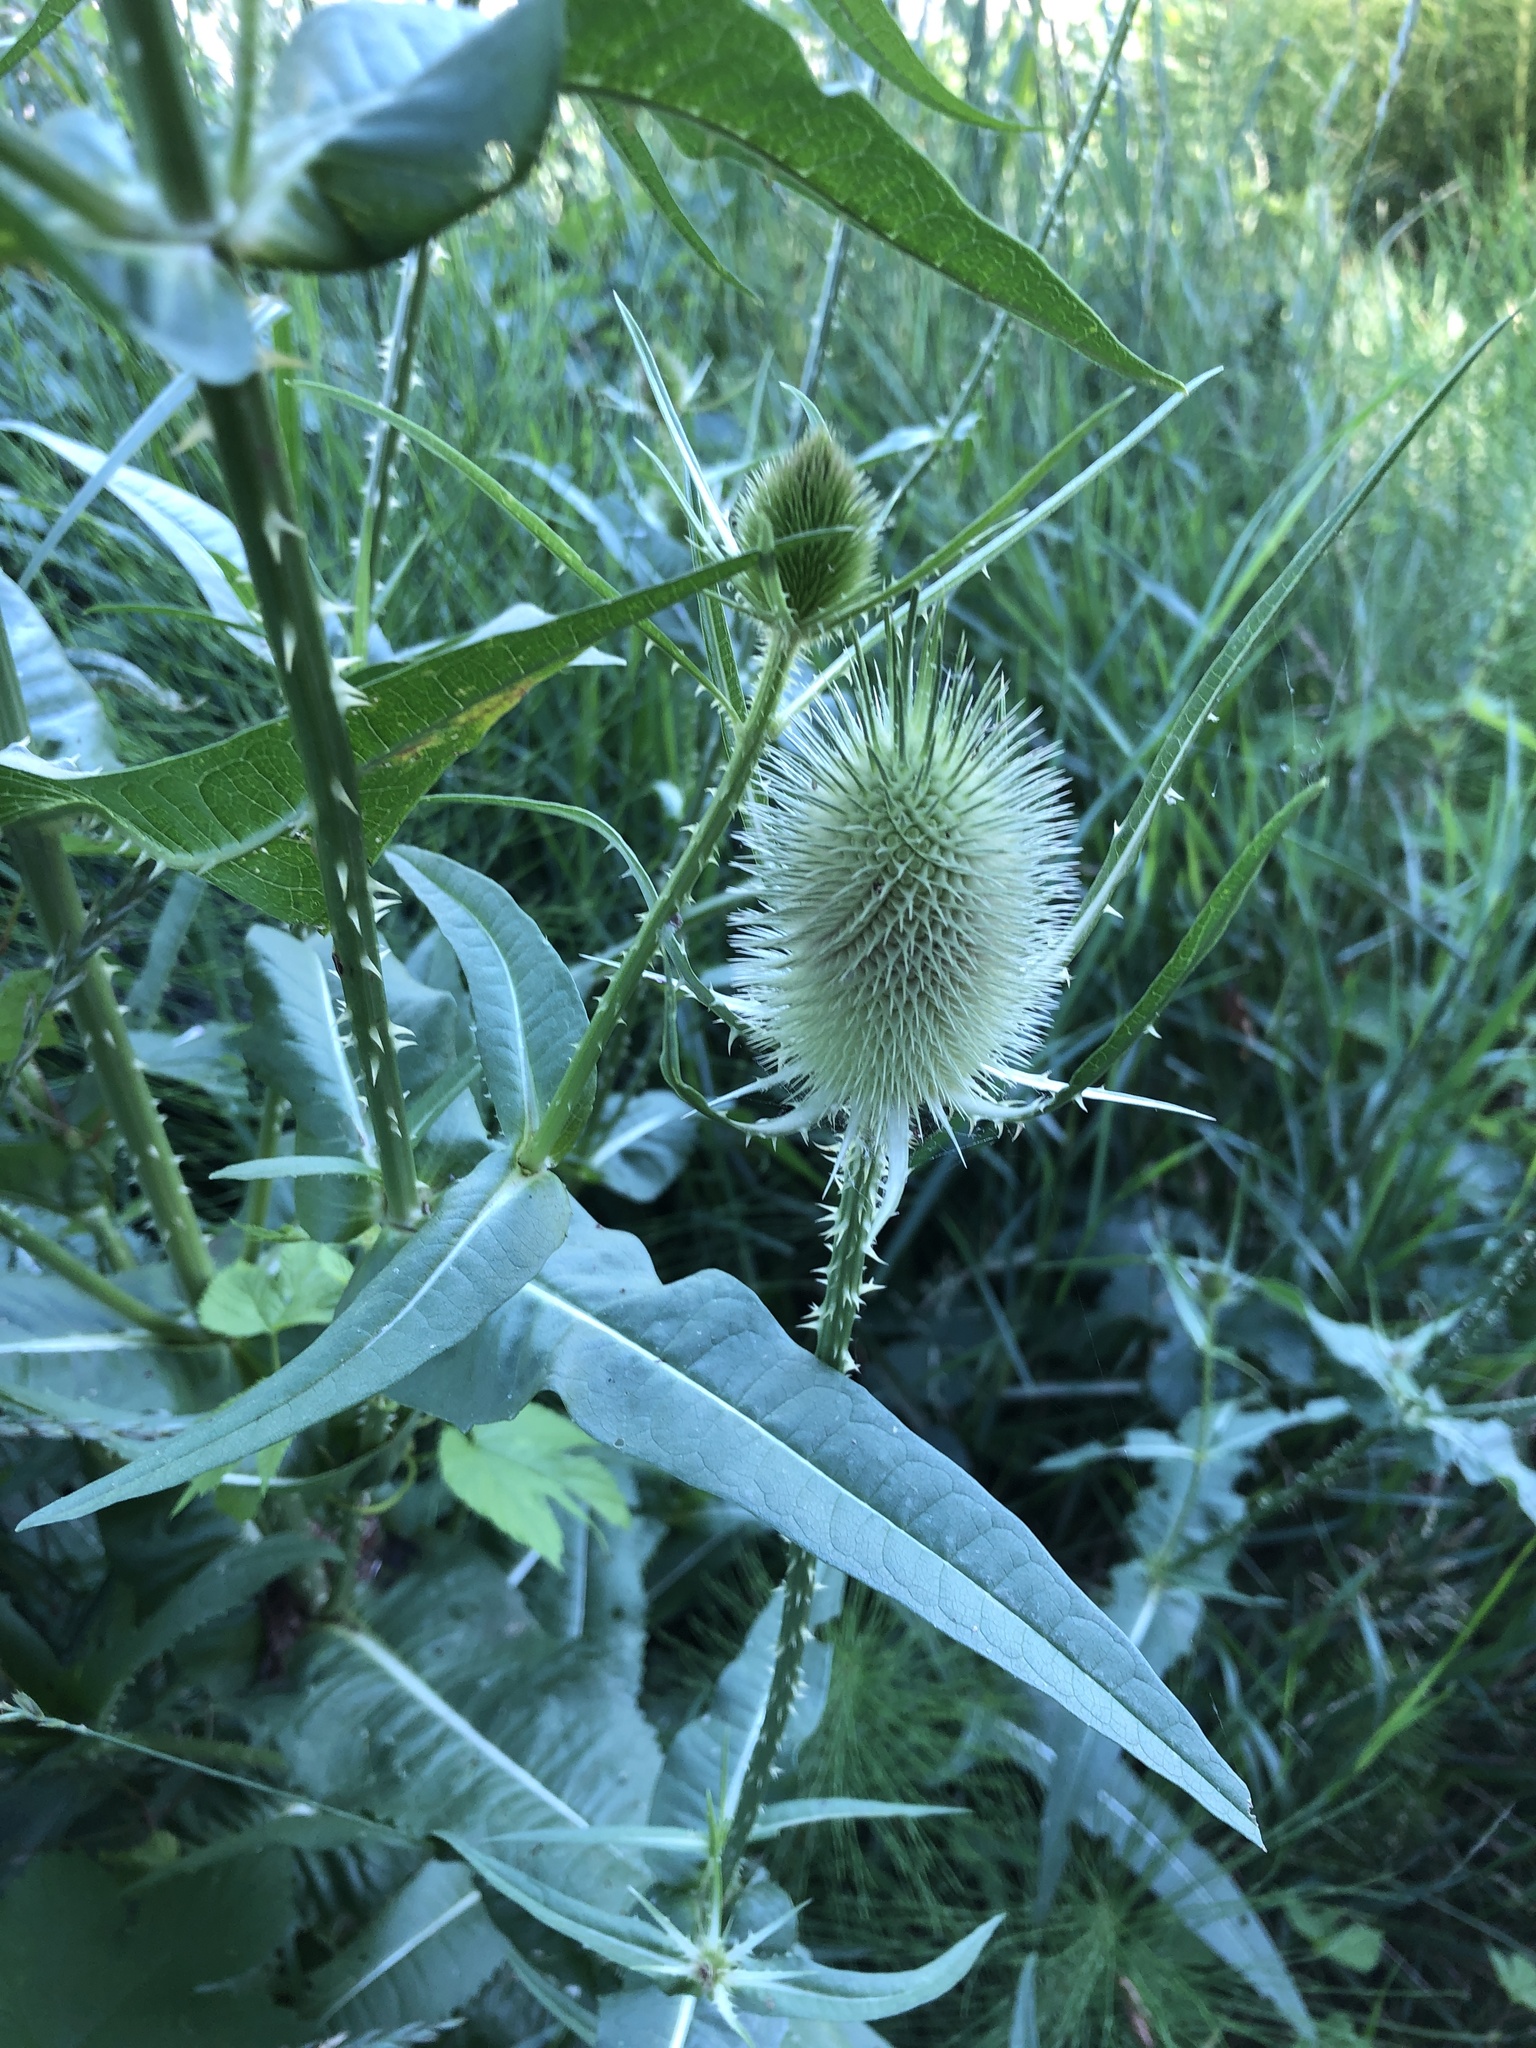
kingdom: Plantae
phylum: Tracheophyta
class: Magnoliopsida
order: Dipsacales
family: Caprifoliaceae
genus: Dipsacus
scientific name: Dipsacus fullonum
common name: Teasel
